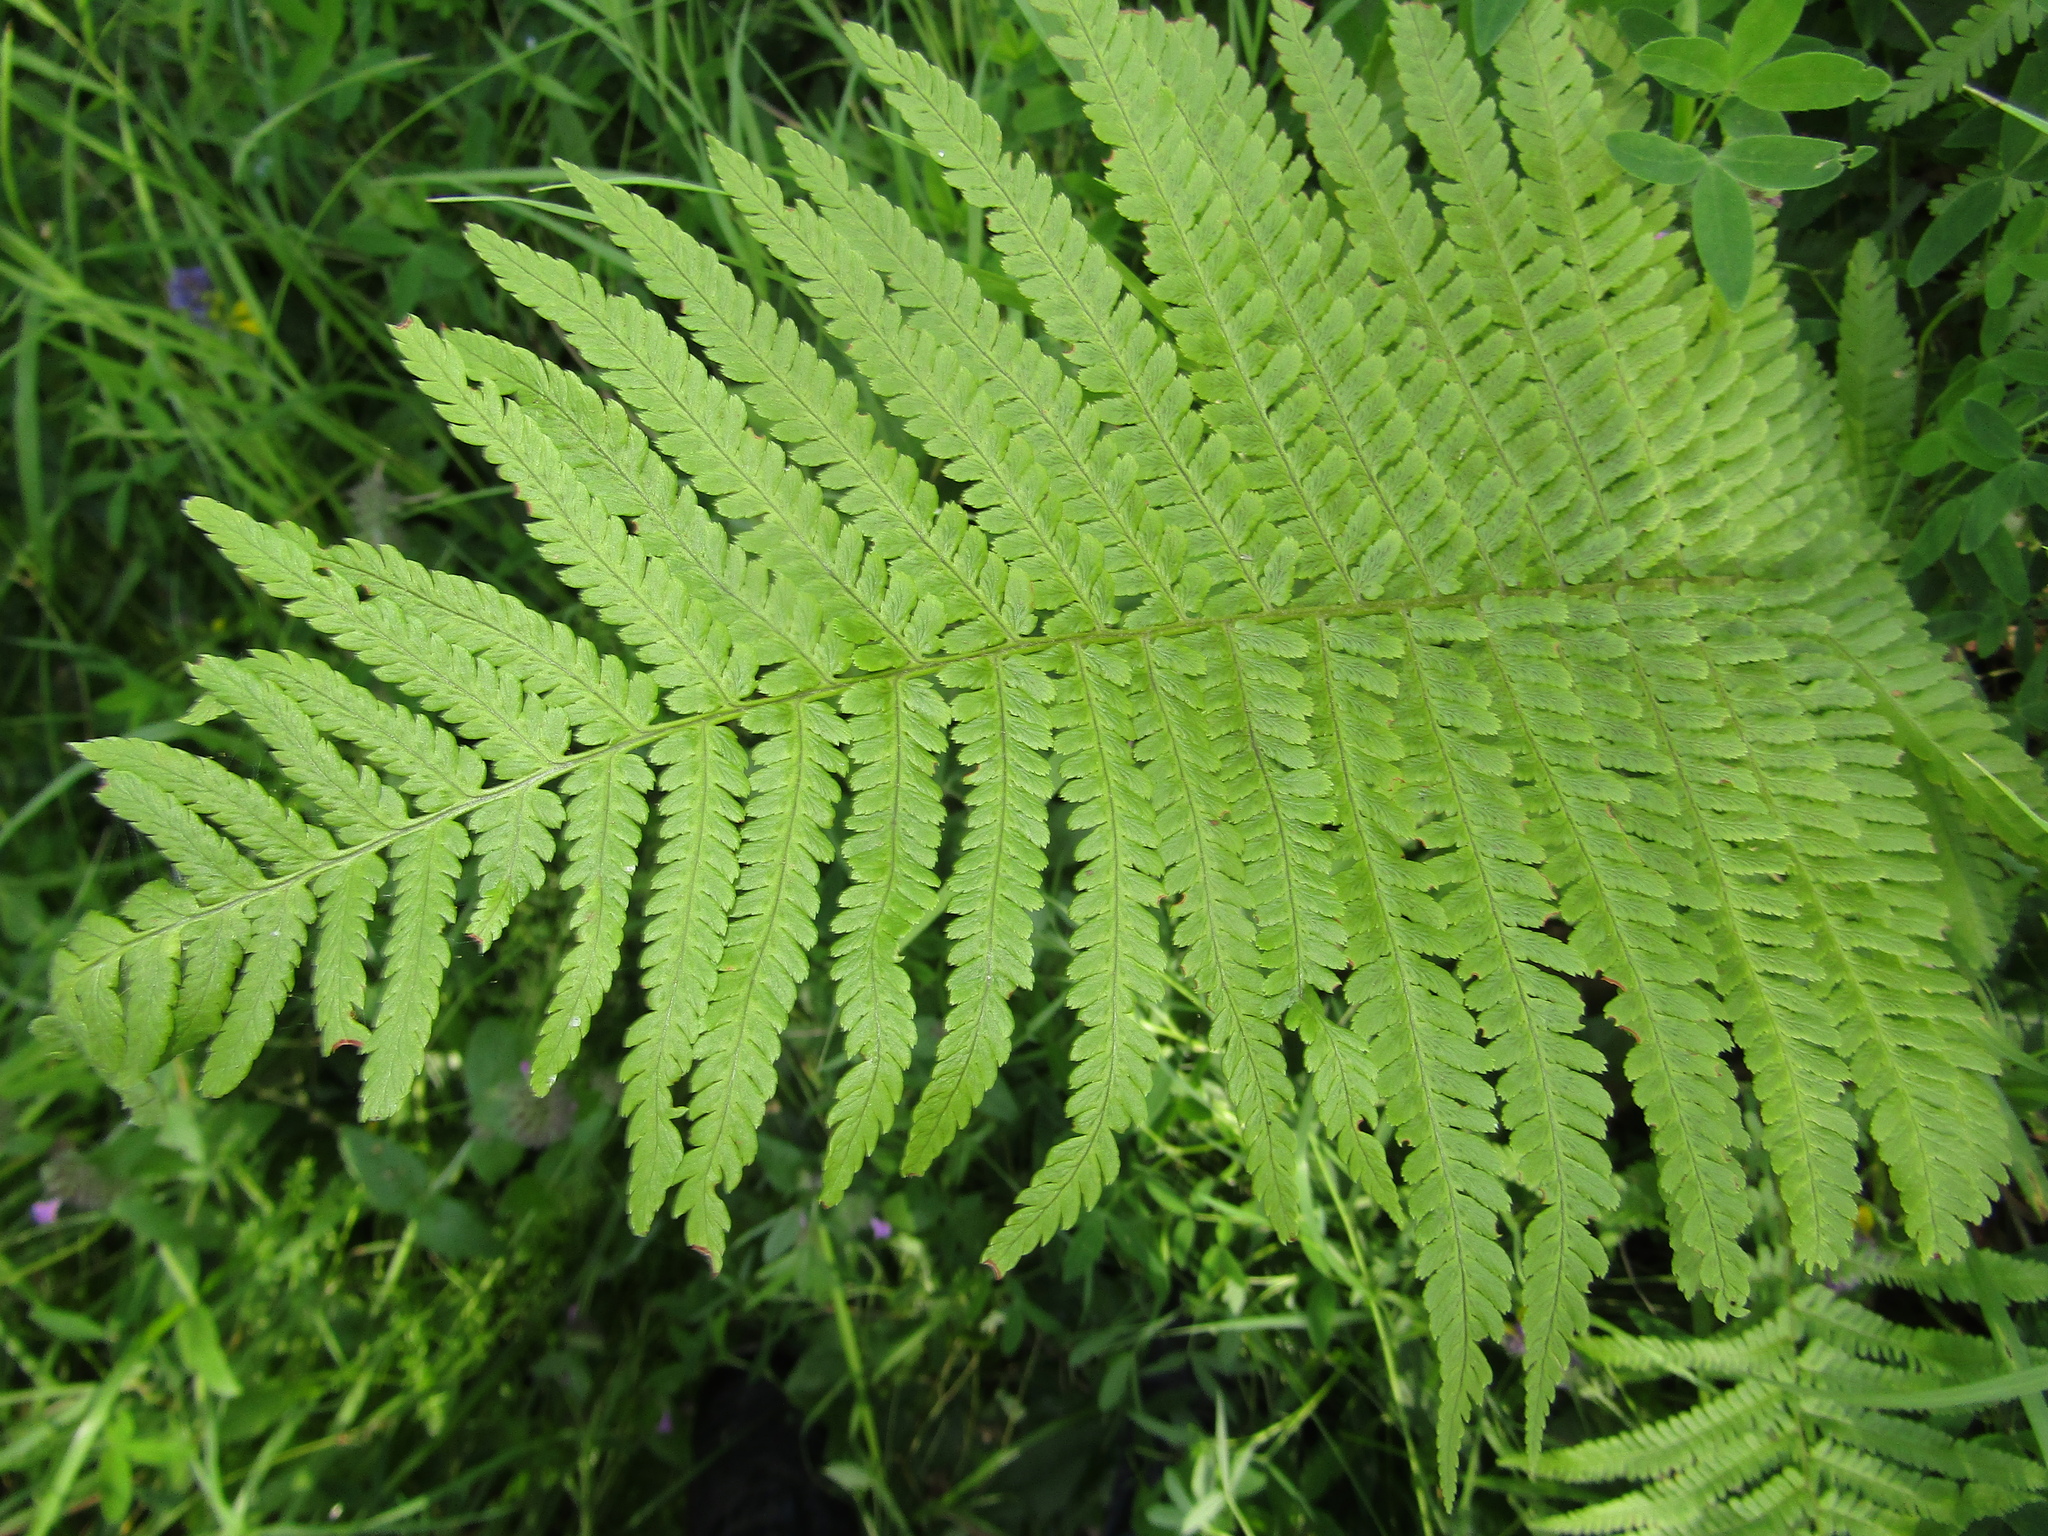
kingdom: Plantae
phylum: Tracheophyta
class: Polypodiopsida
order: Polypodiales
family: Dryopteridaceae
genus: Dryopteris
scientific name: Dryopteris filix-mas
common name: Male fern
